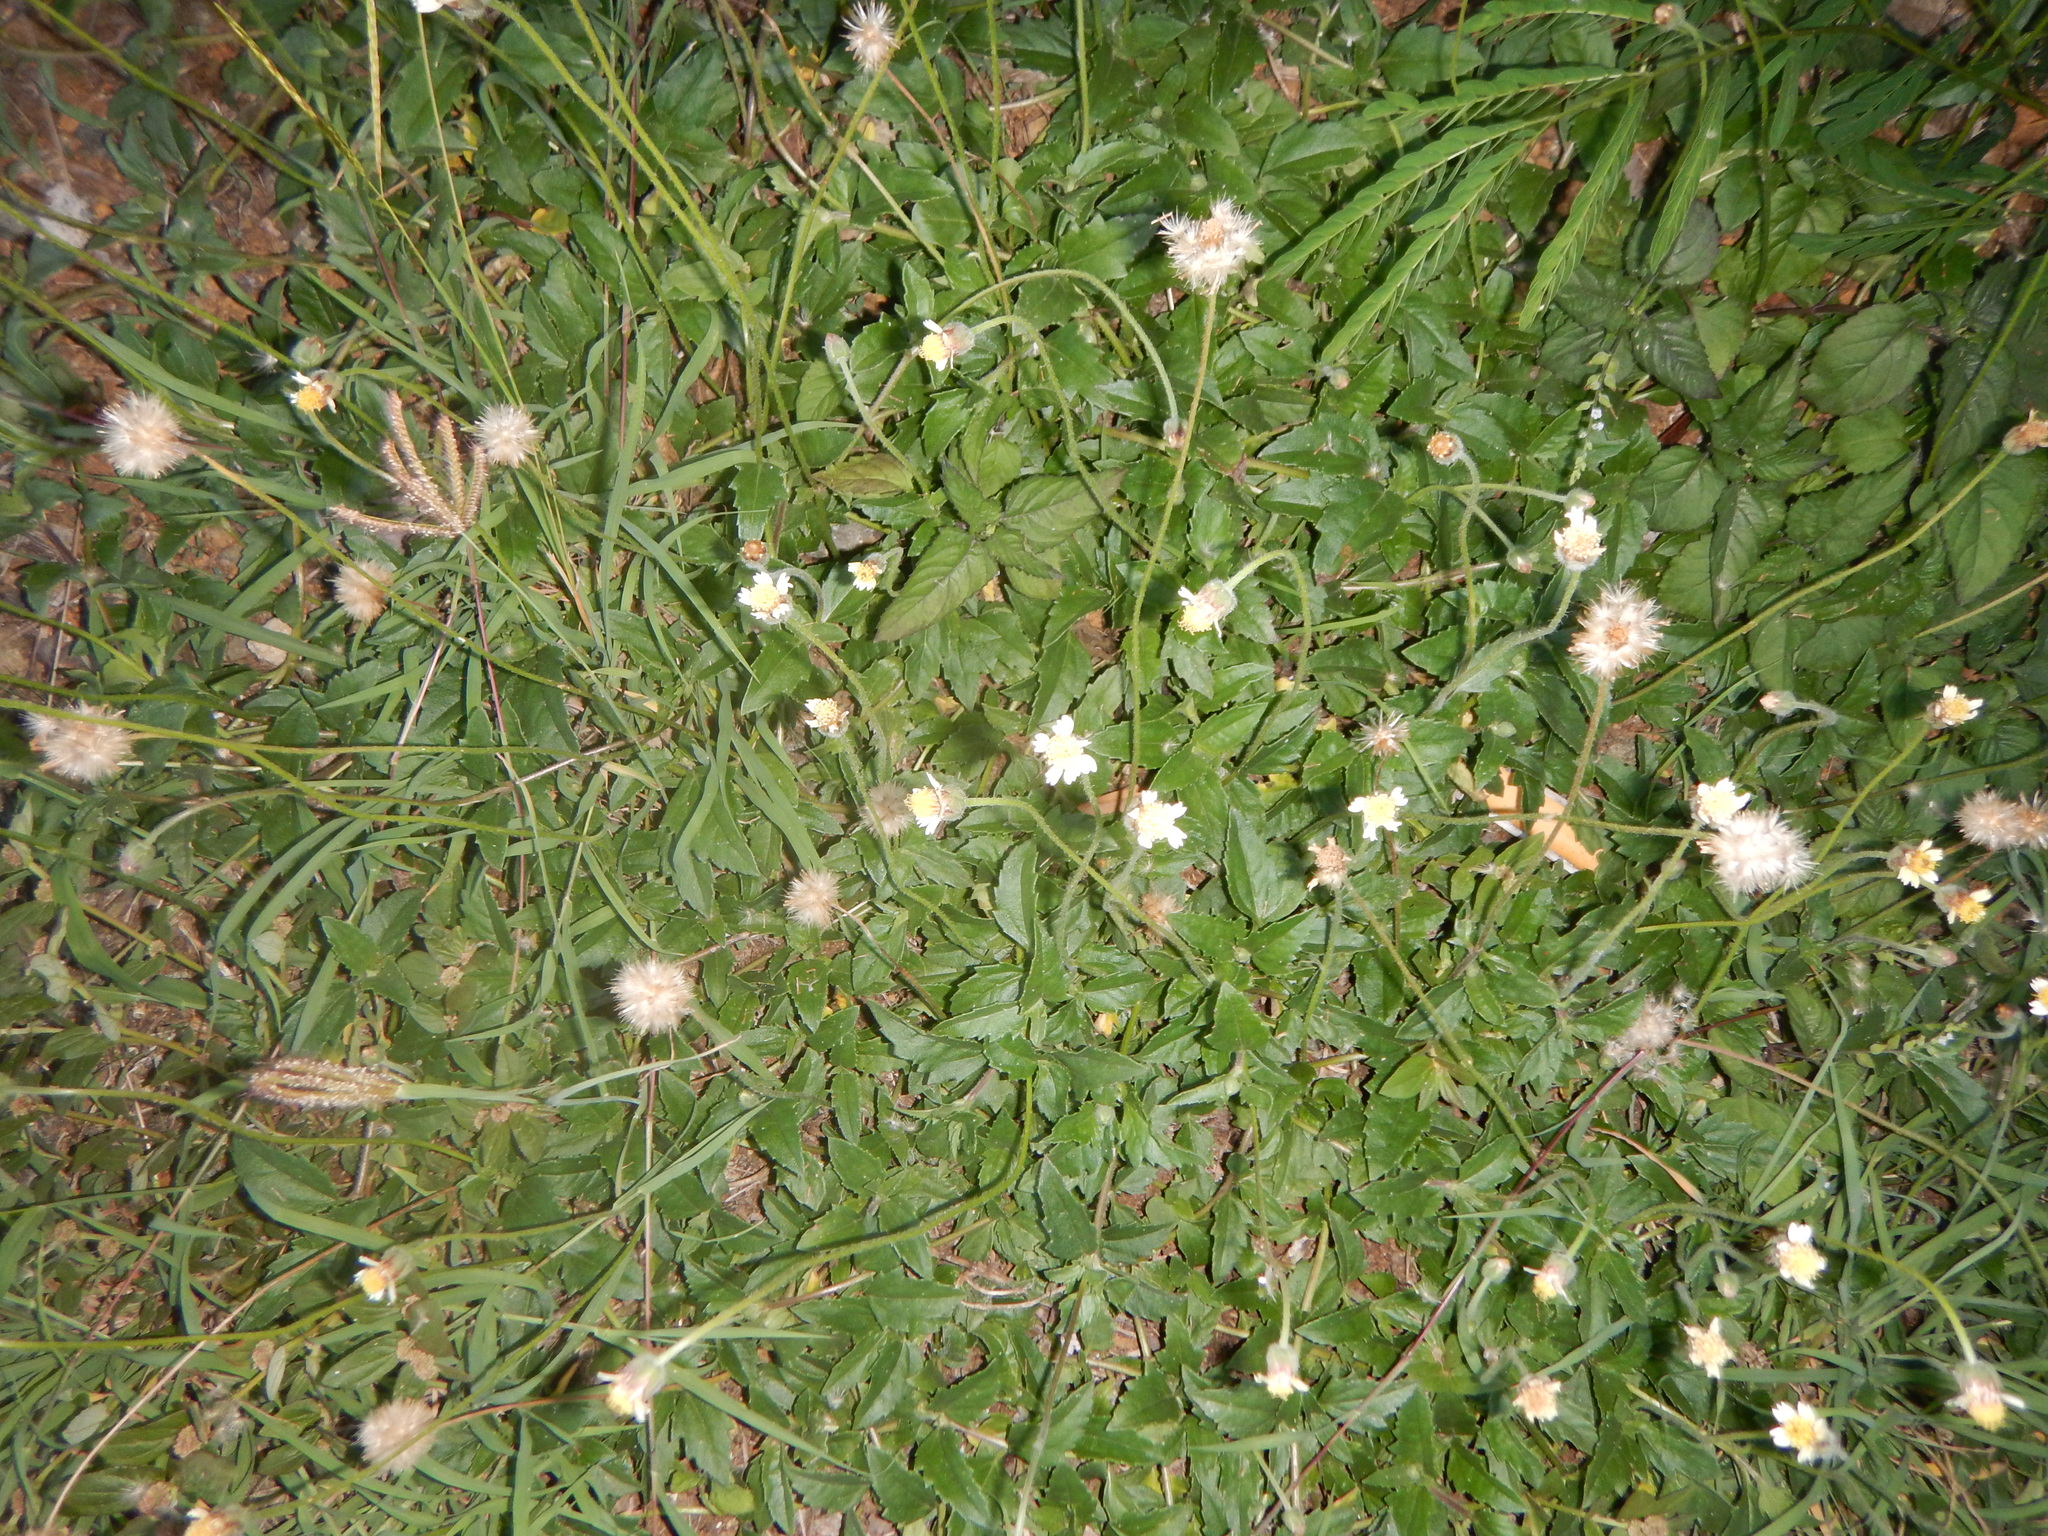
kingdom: Plantae
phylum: Tracheophyta
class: Magnoliopsida
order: Asterales
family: Asteraceae
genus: Tridax
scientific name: Tridax procumbens
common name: Coatbuttons
